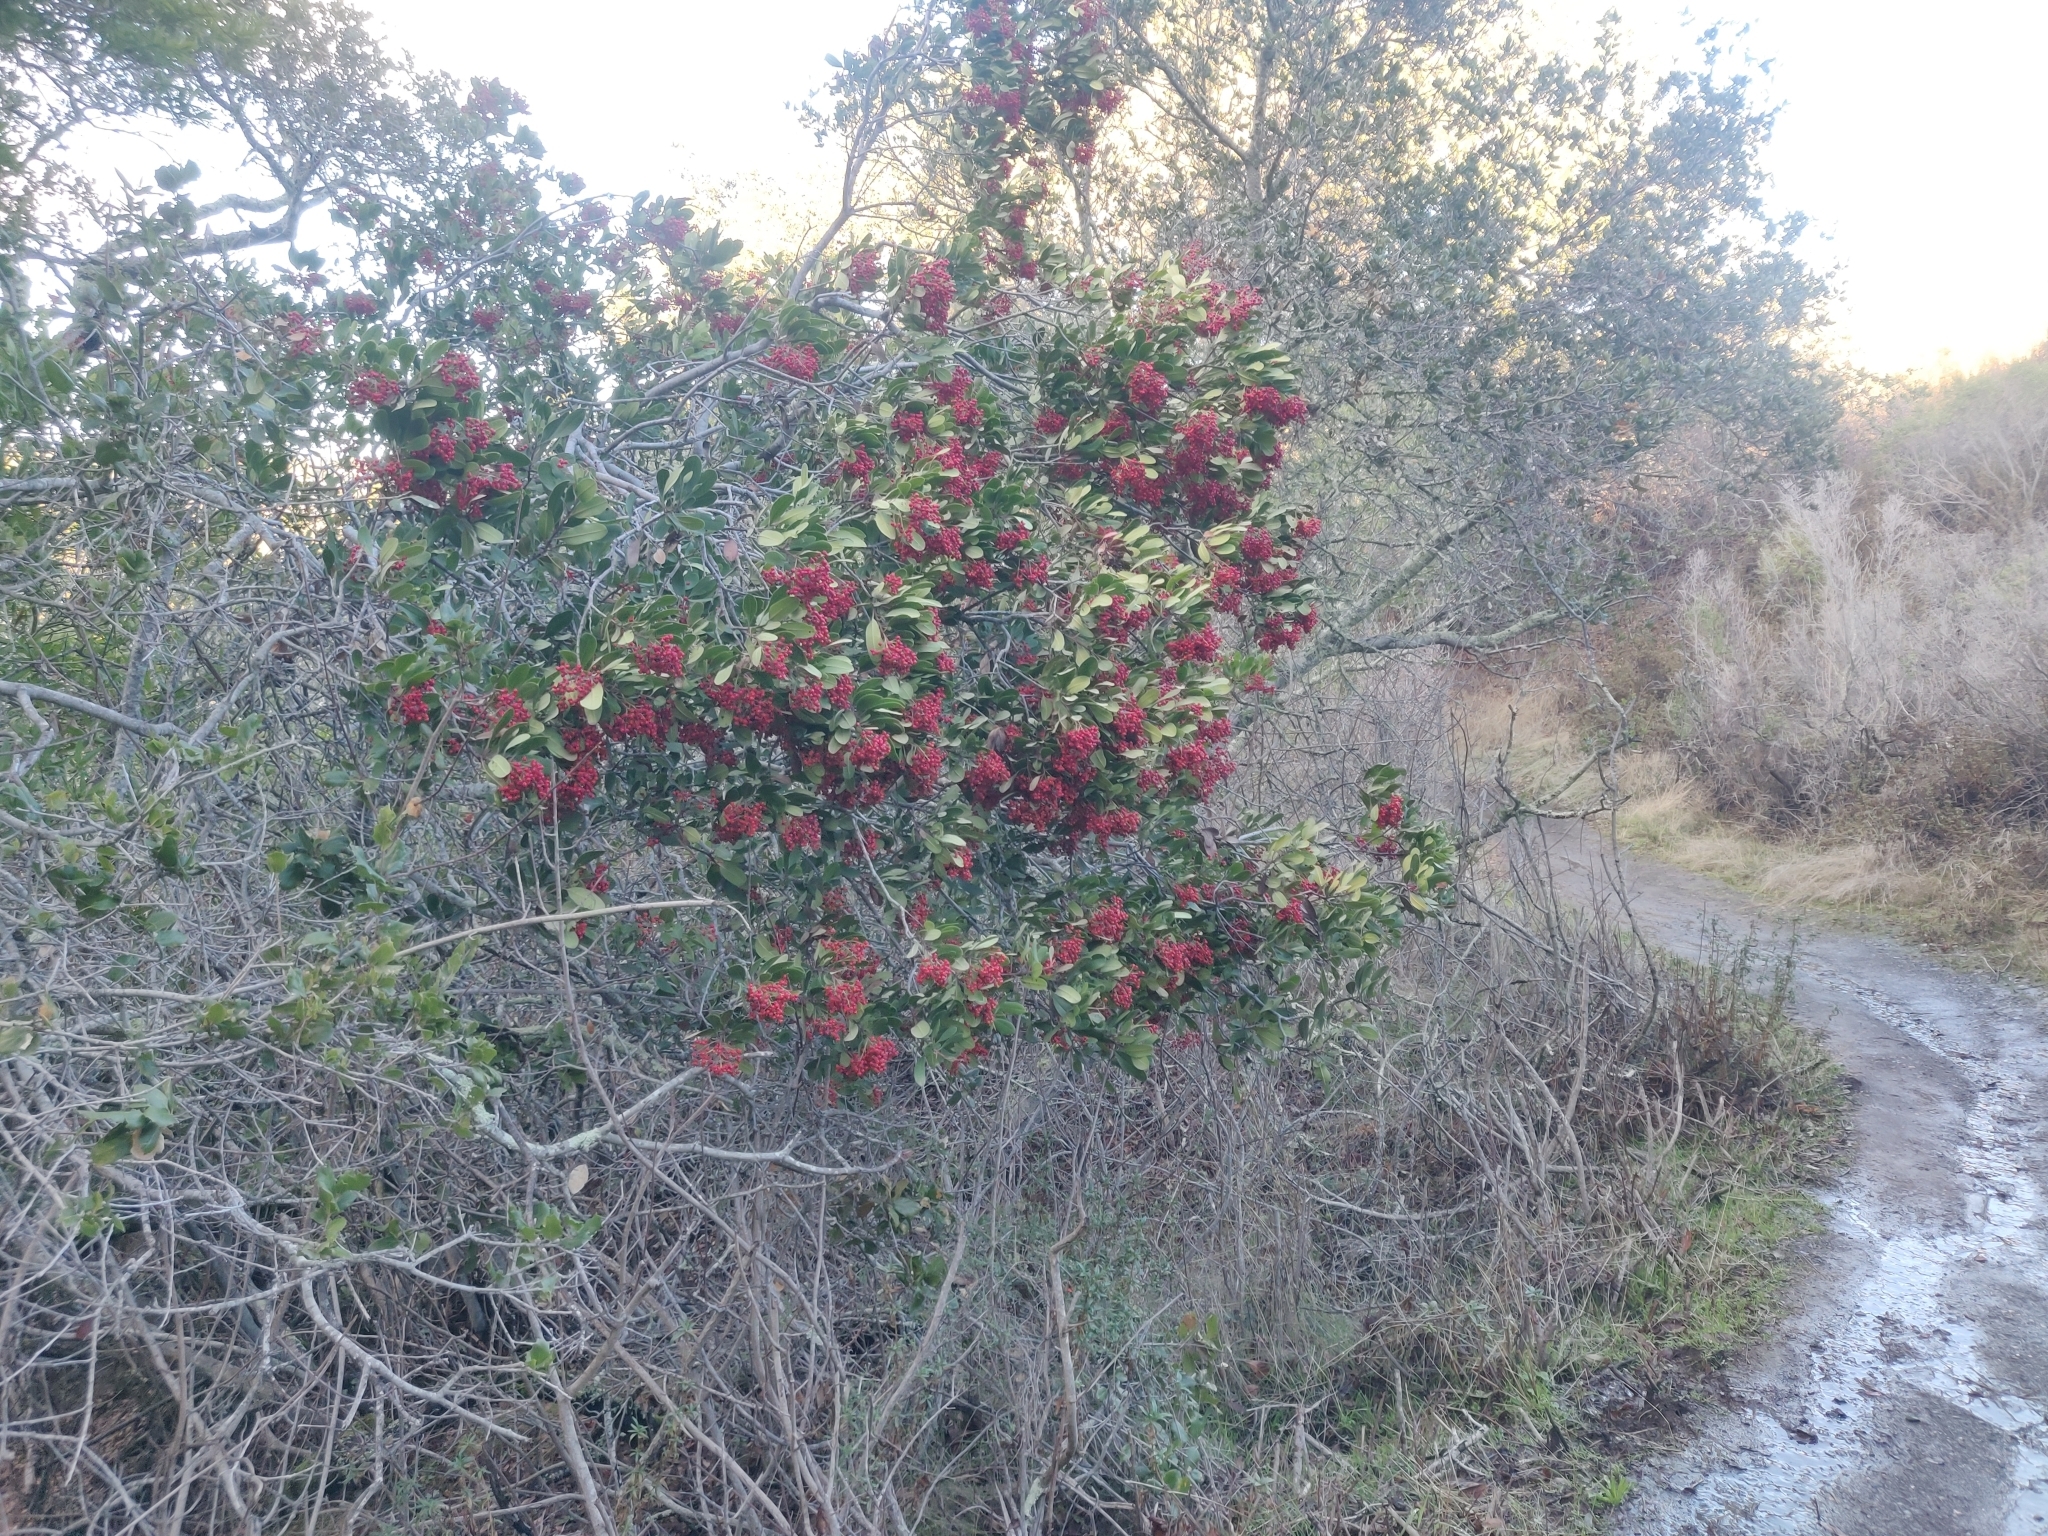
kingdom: Plantae
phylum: Tracheophyta
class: Magnoliopsida
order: Rosales
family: Rosaceae
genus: Heteromeles
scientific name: Heteromeles arbutifolia
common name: California-holly
